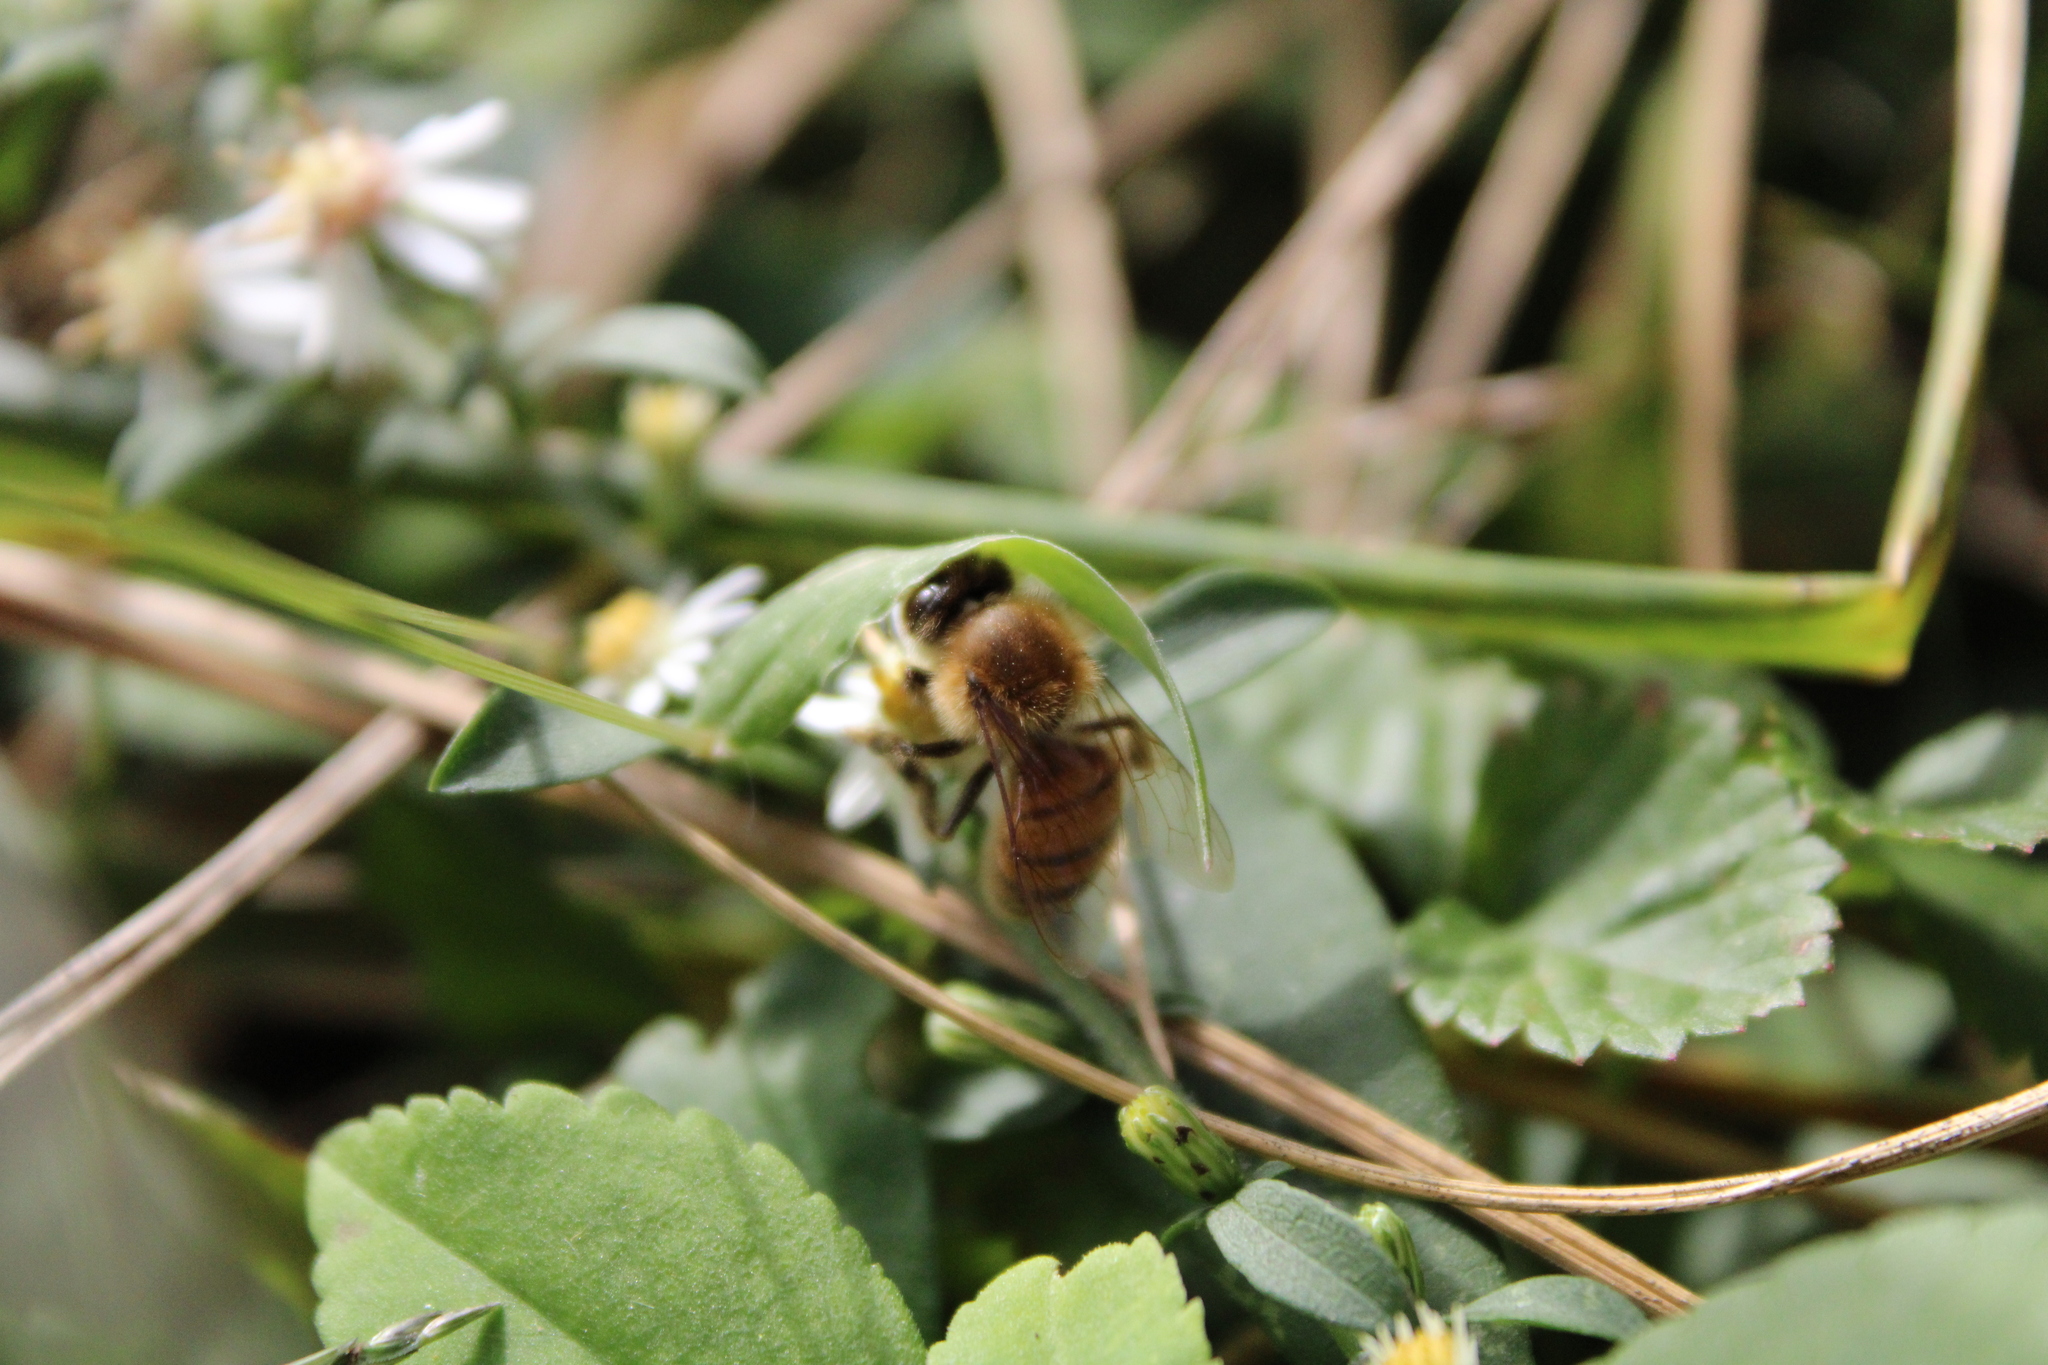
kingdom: Animalia
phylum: Arthropoda
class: Insecta
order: Hymenoptera
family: Apidae
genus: Apis
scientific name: Apis mellifera
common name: Honey bee
